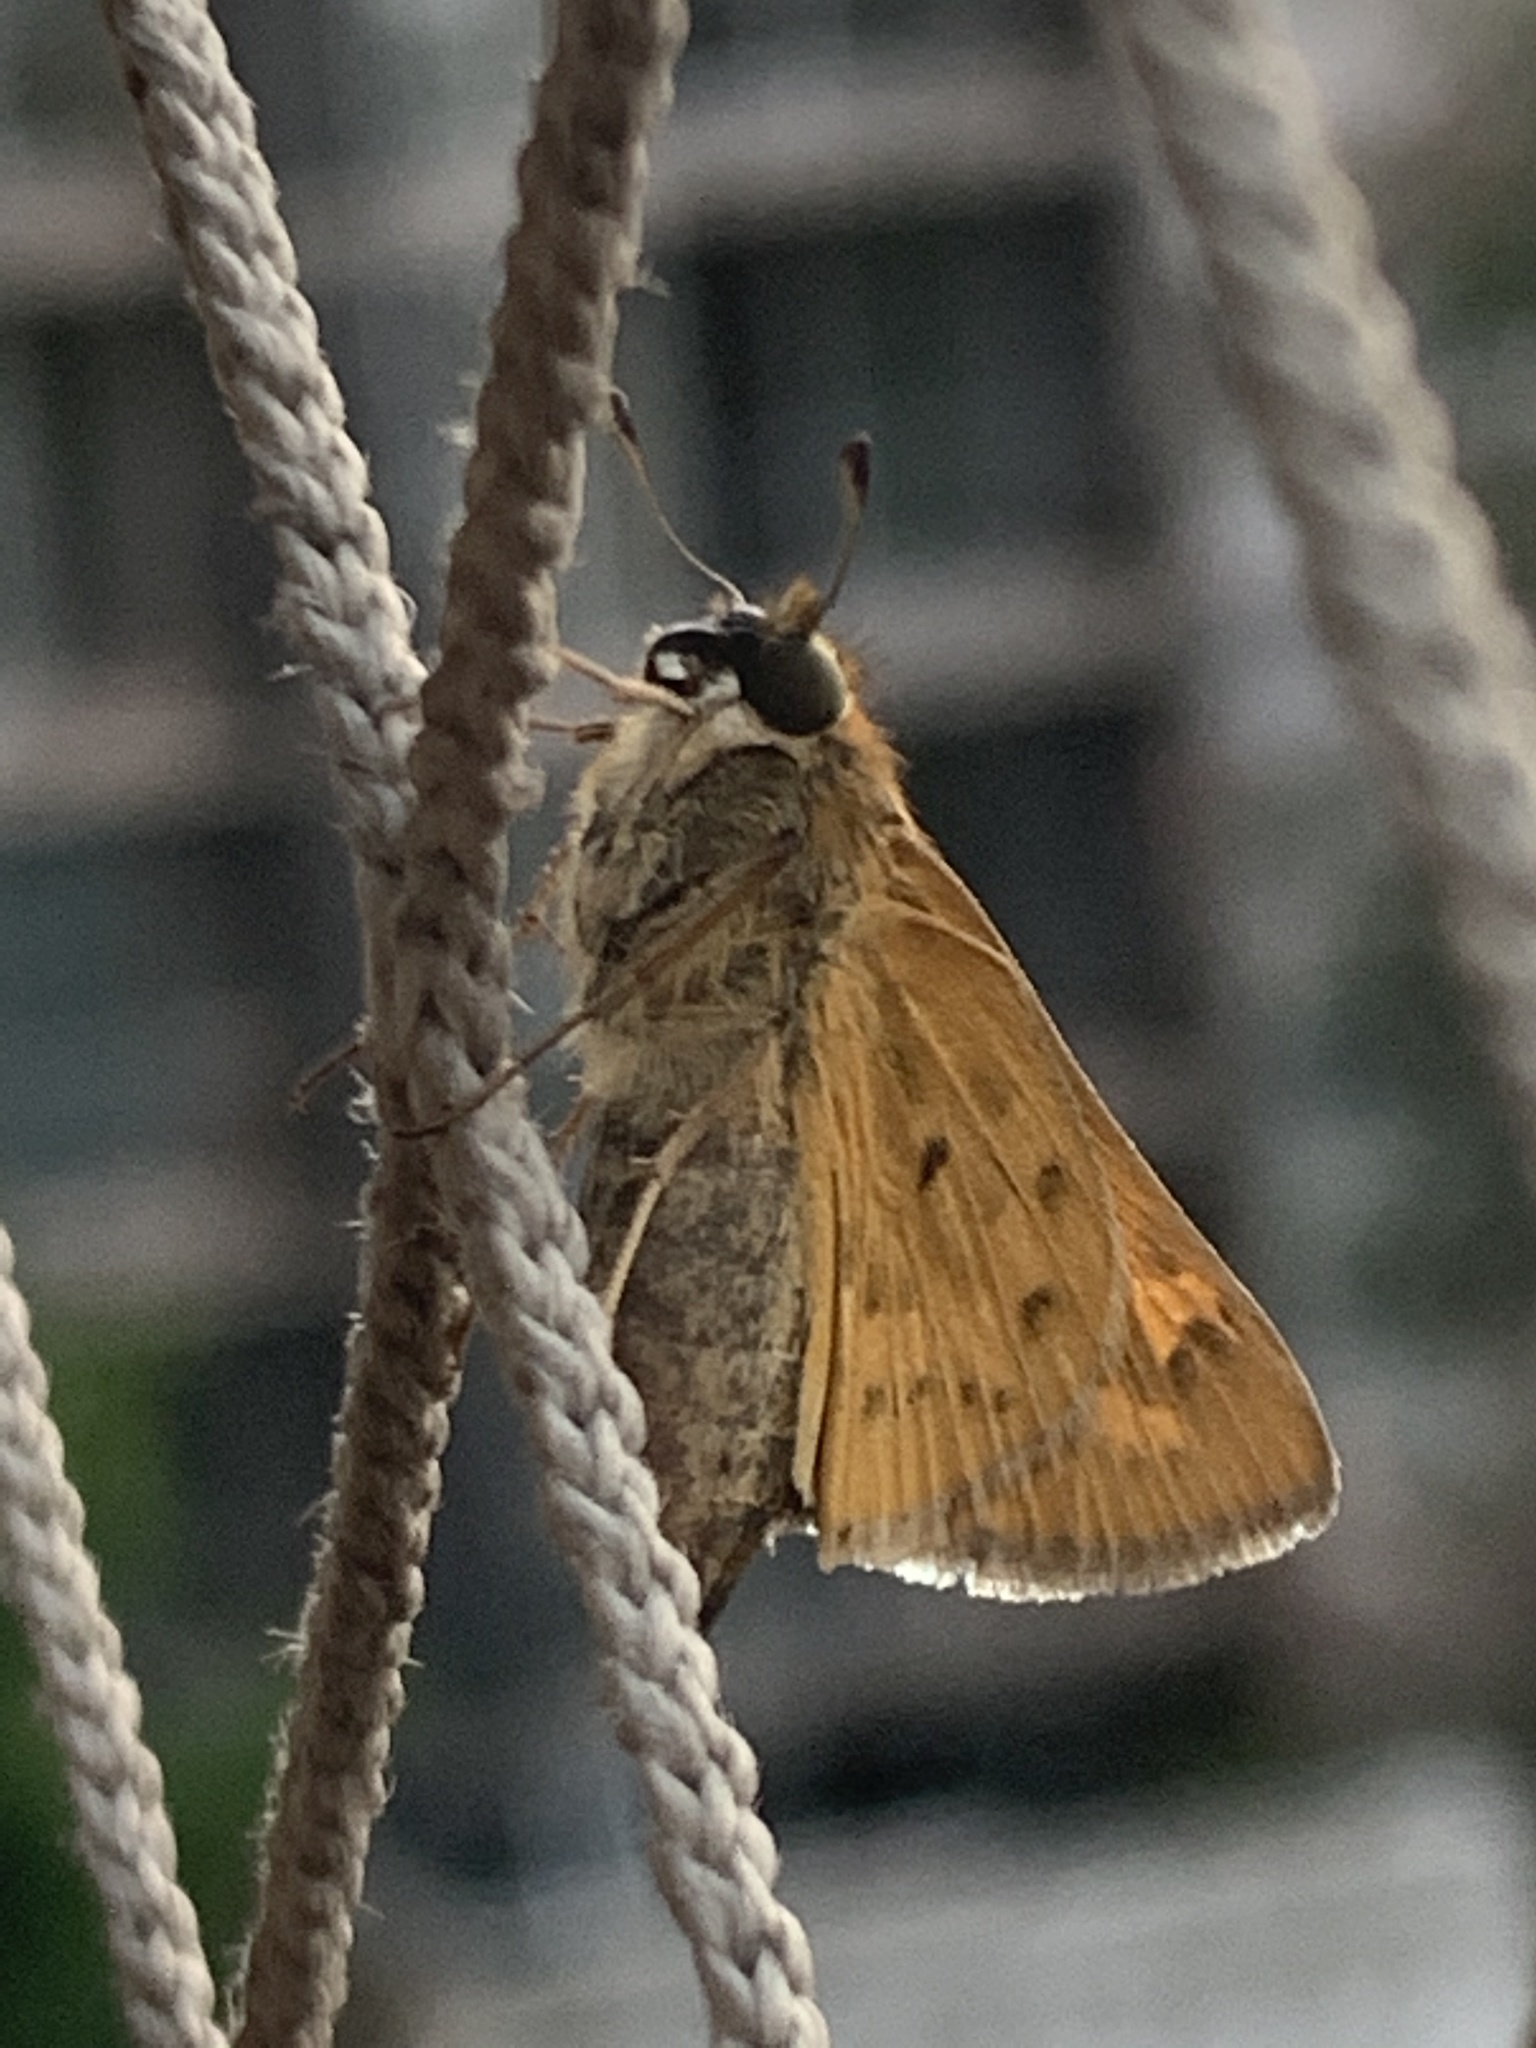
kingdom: Animalia
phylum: Arthropoda
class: Insecta
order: Lepidoptera
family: Hesperiidae
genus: Hylephila
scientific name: Hylephila phyleus
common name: Fiery skipper
